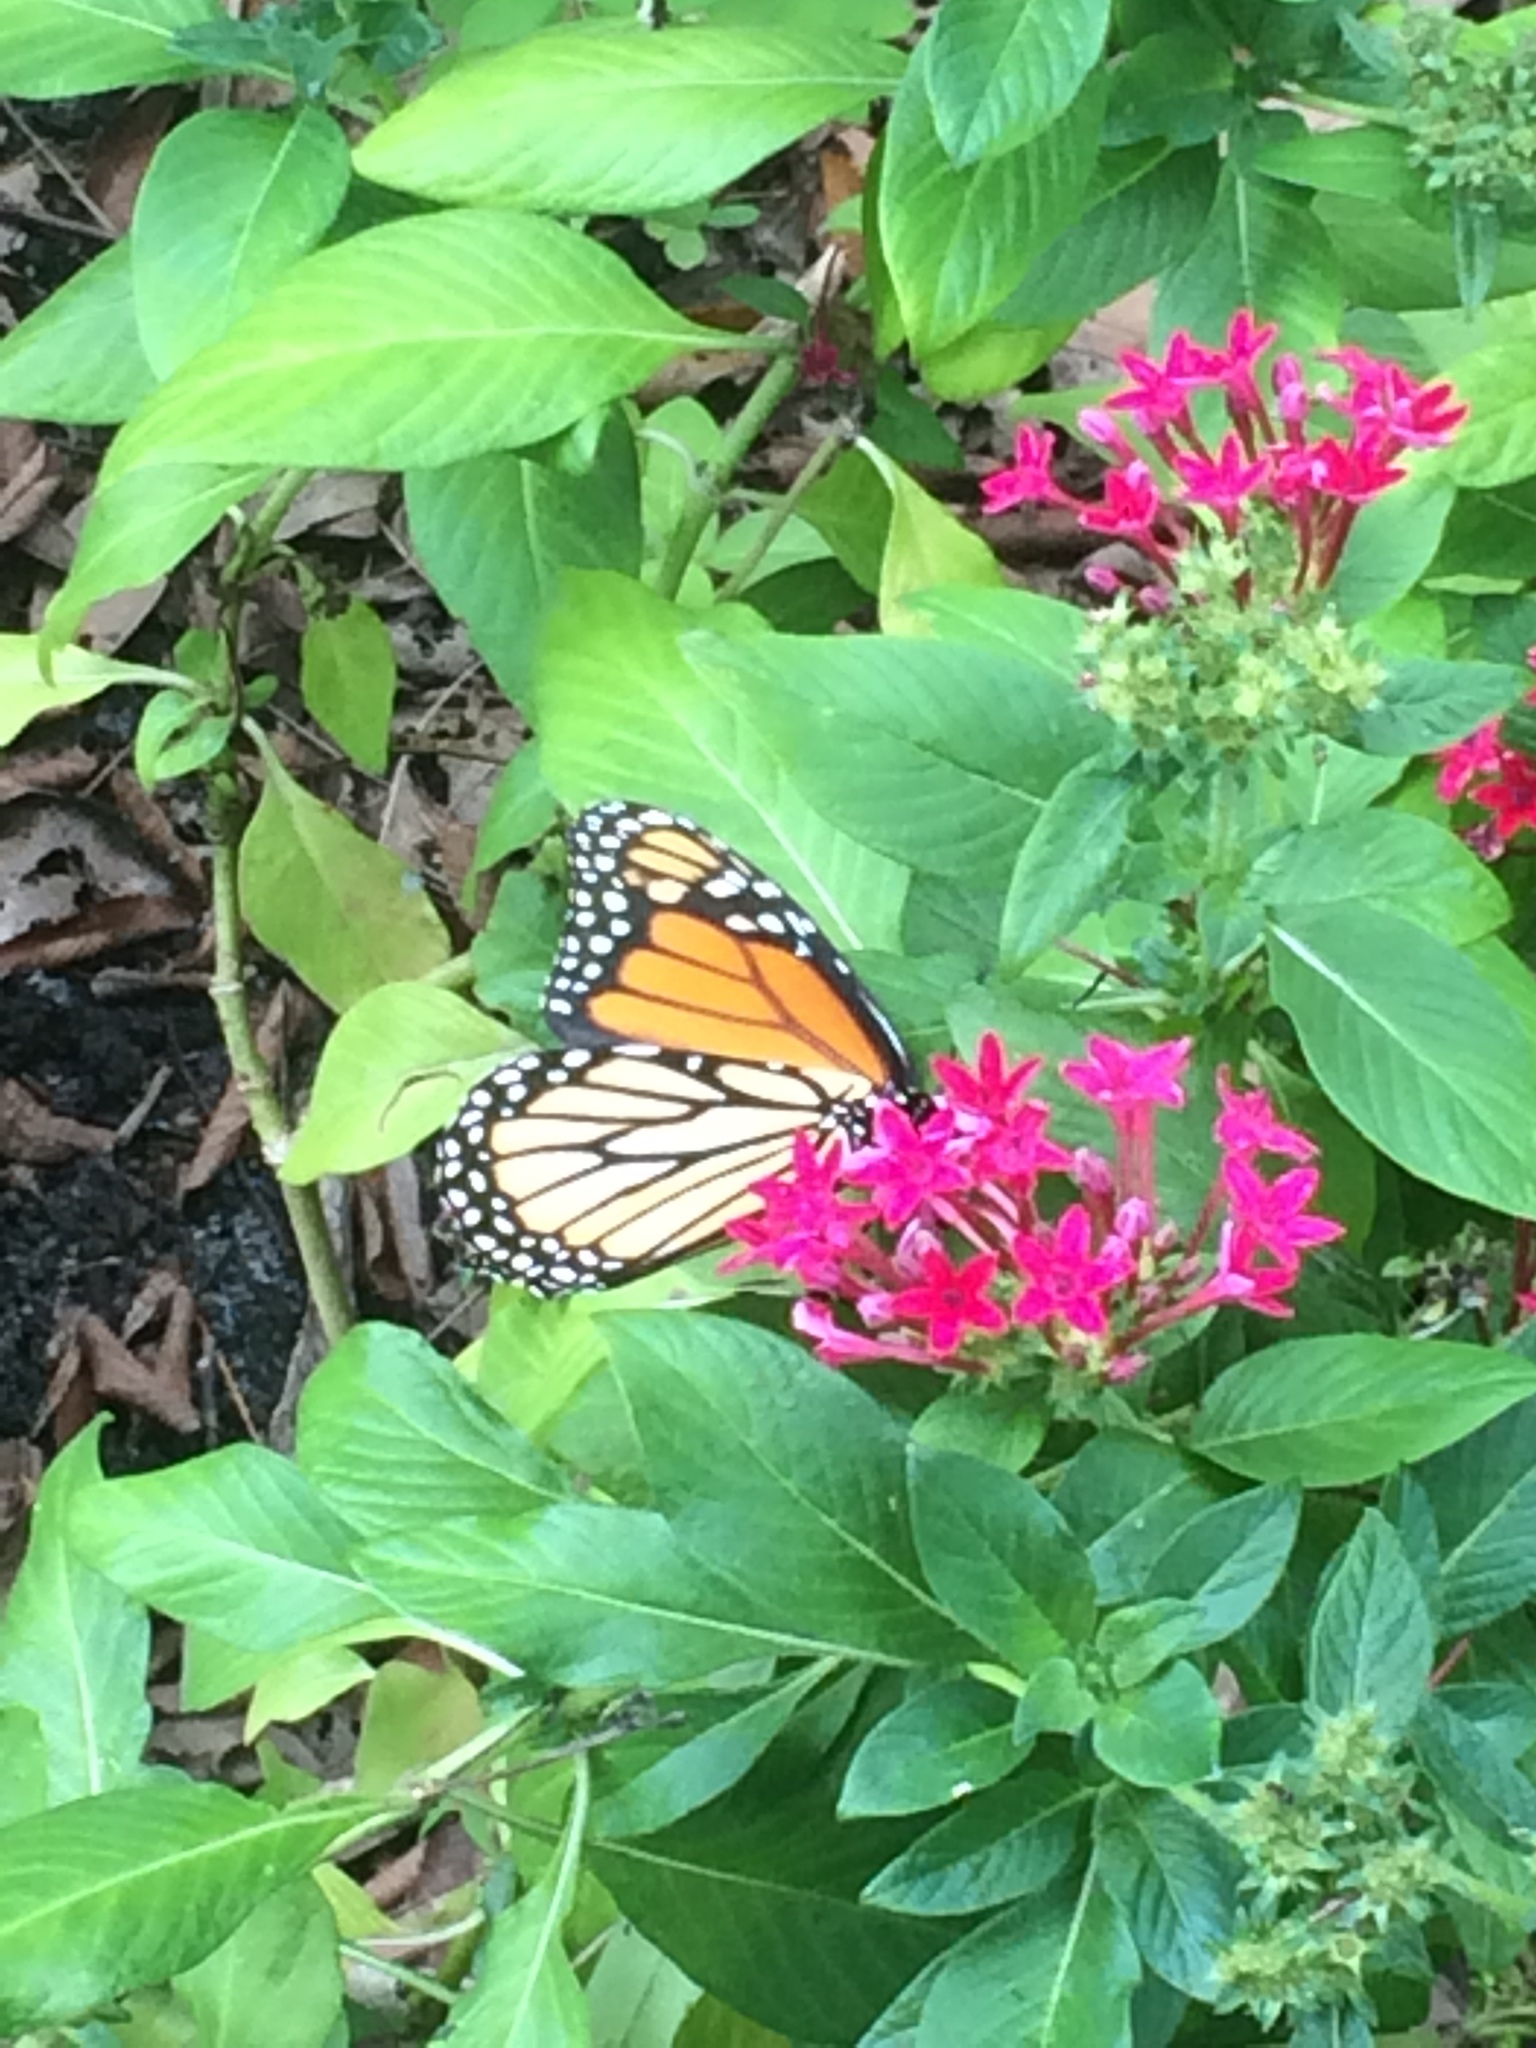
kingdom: Animalia
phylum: Arthropoda
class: Insecta
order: Lepidoptera
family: Nymphalidae
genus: Danaus
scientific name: Danaus plexippus
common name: Monarch
